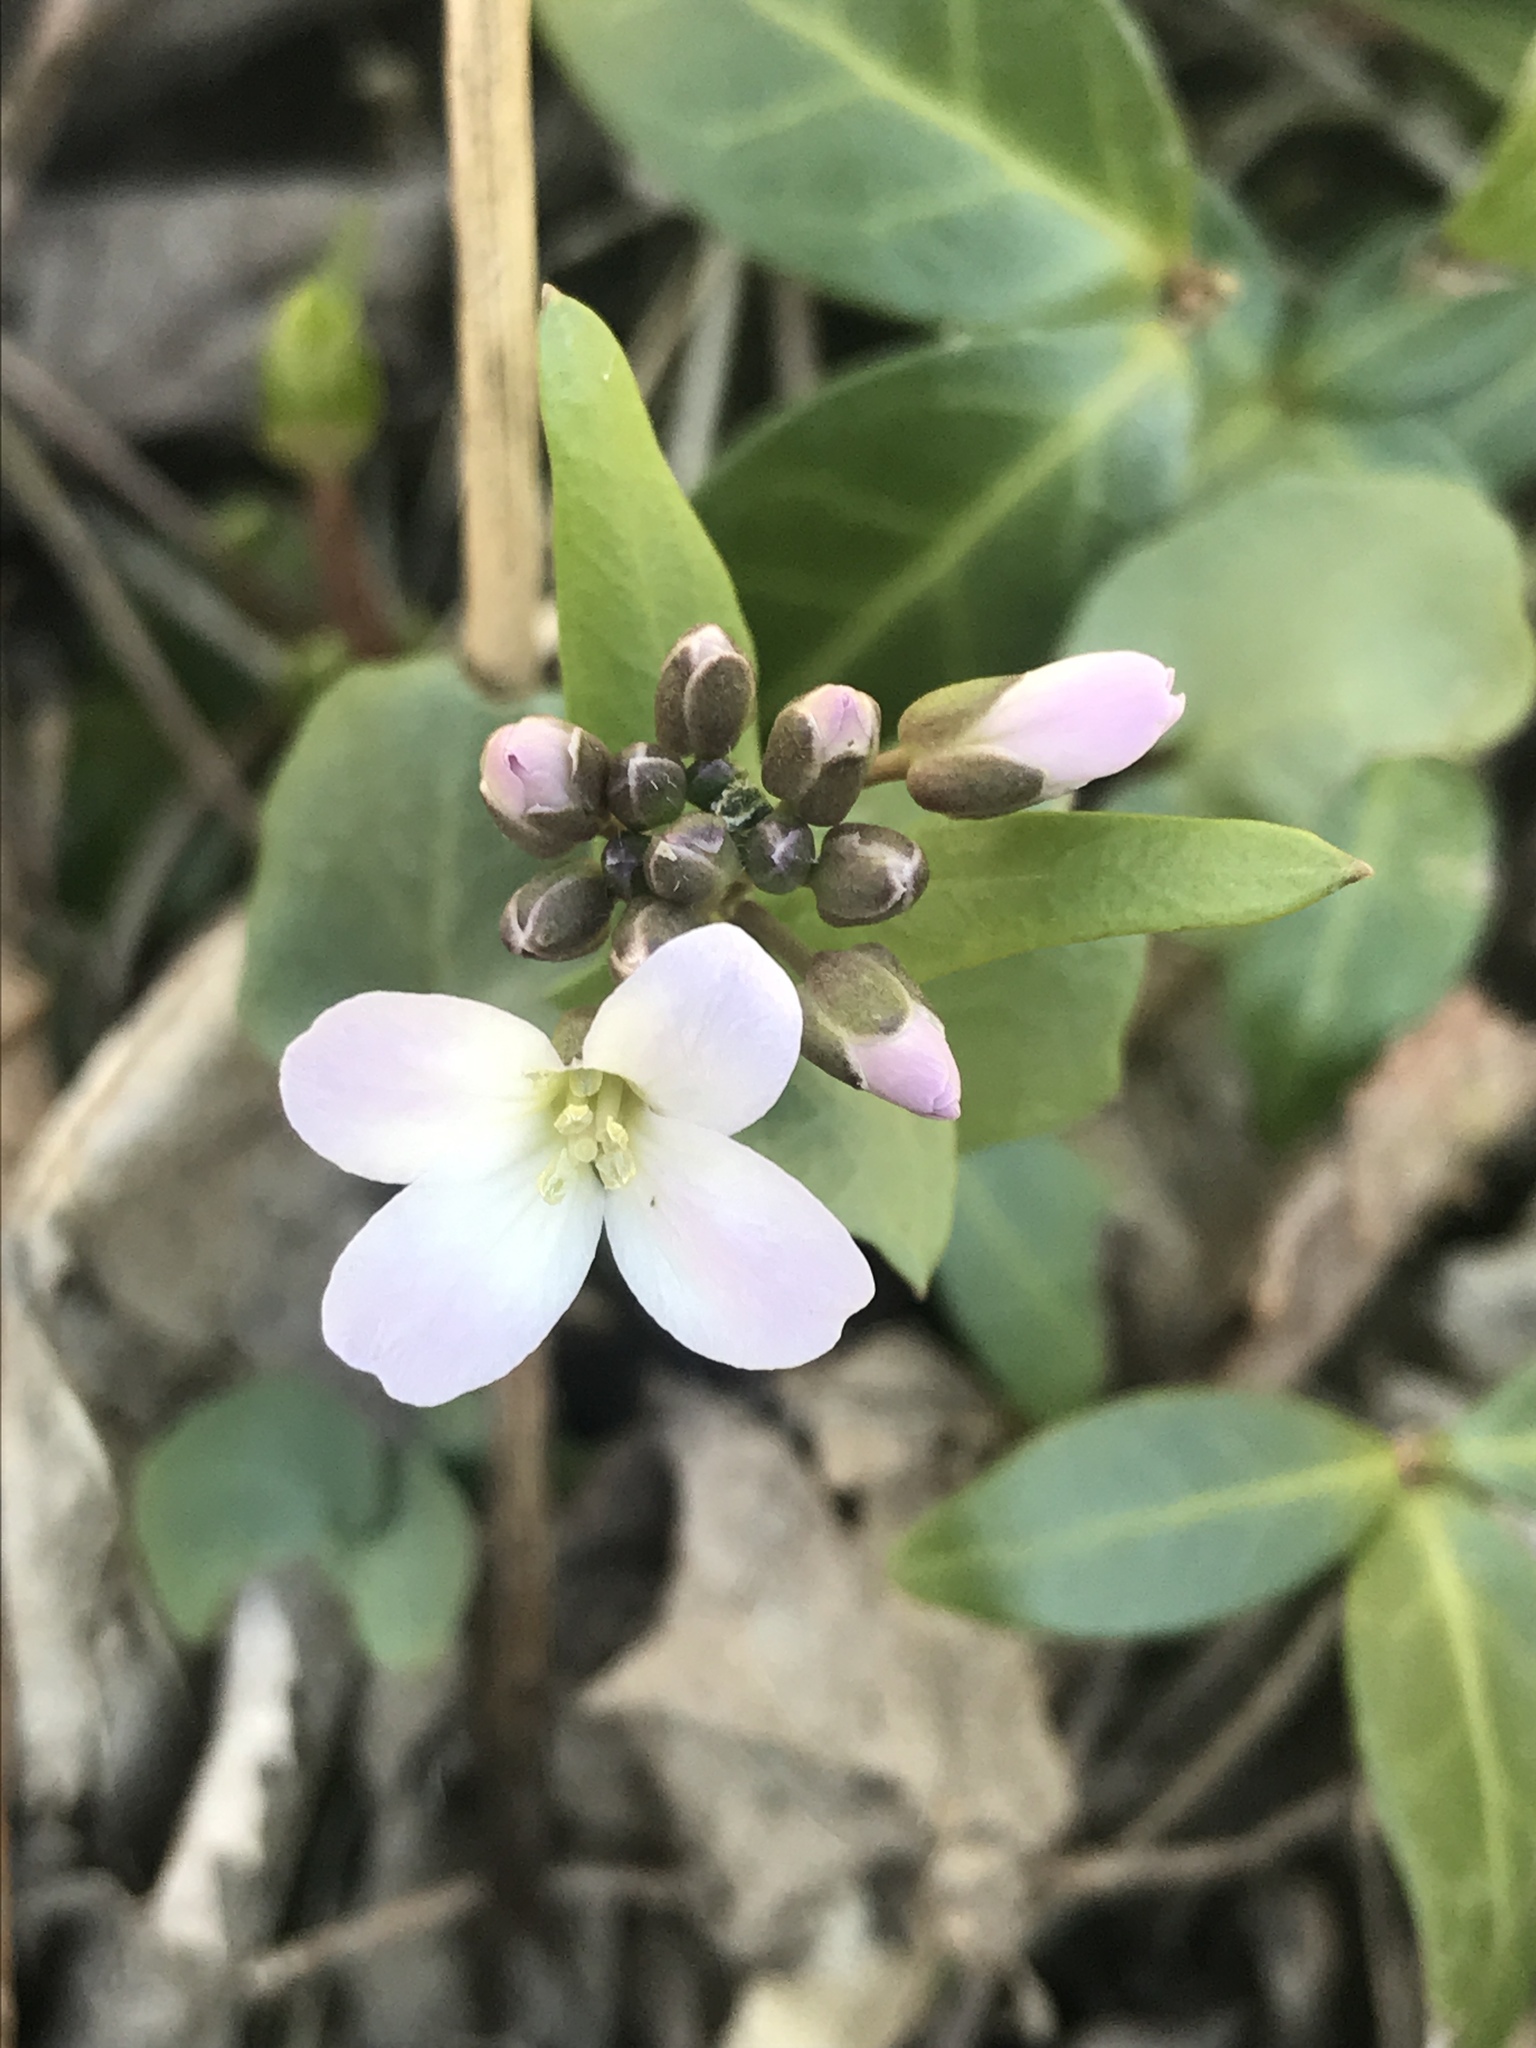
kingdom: Plantae
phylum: Tracheophyta
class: Magnoliopsida
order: Brassicales
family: Brassicaceae
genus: Cardamine
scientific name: Cardamine douglassii
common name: Purple cress
